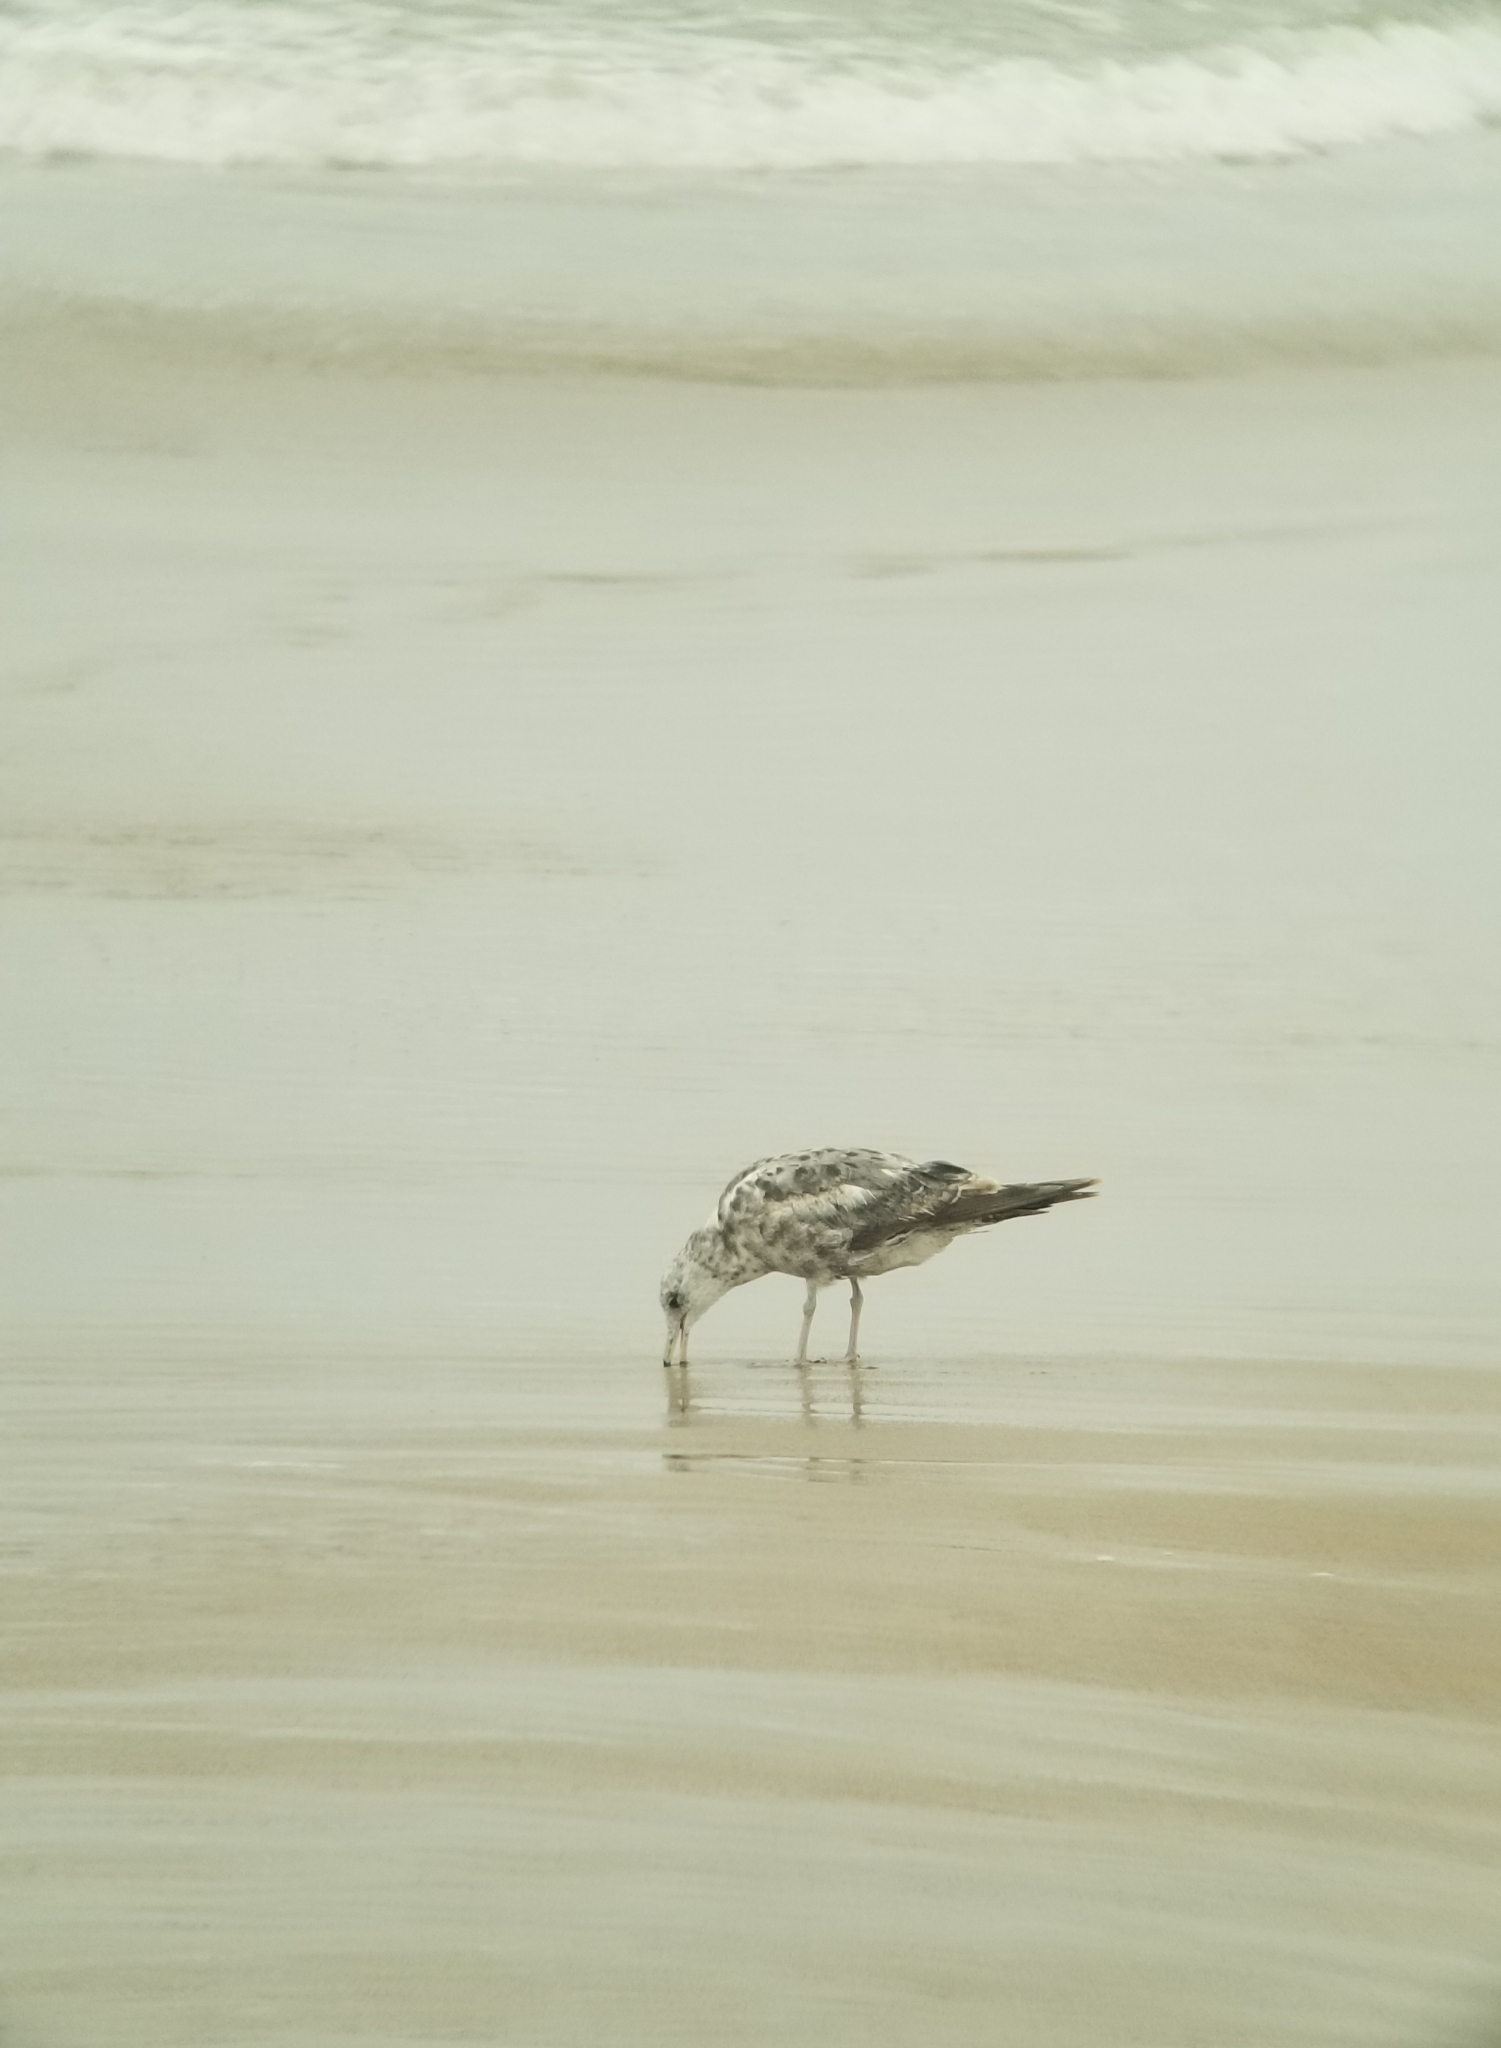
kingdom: Animalia
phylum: Chordata
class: Aves
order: Charadriiformes
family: Laridae
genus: Larus
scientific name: Larus californicus
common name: California gull
